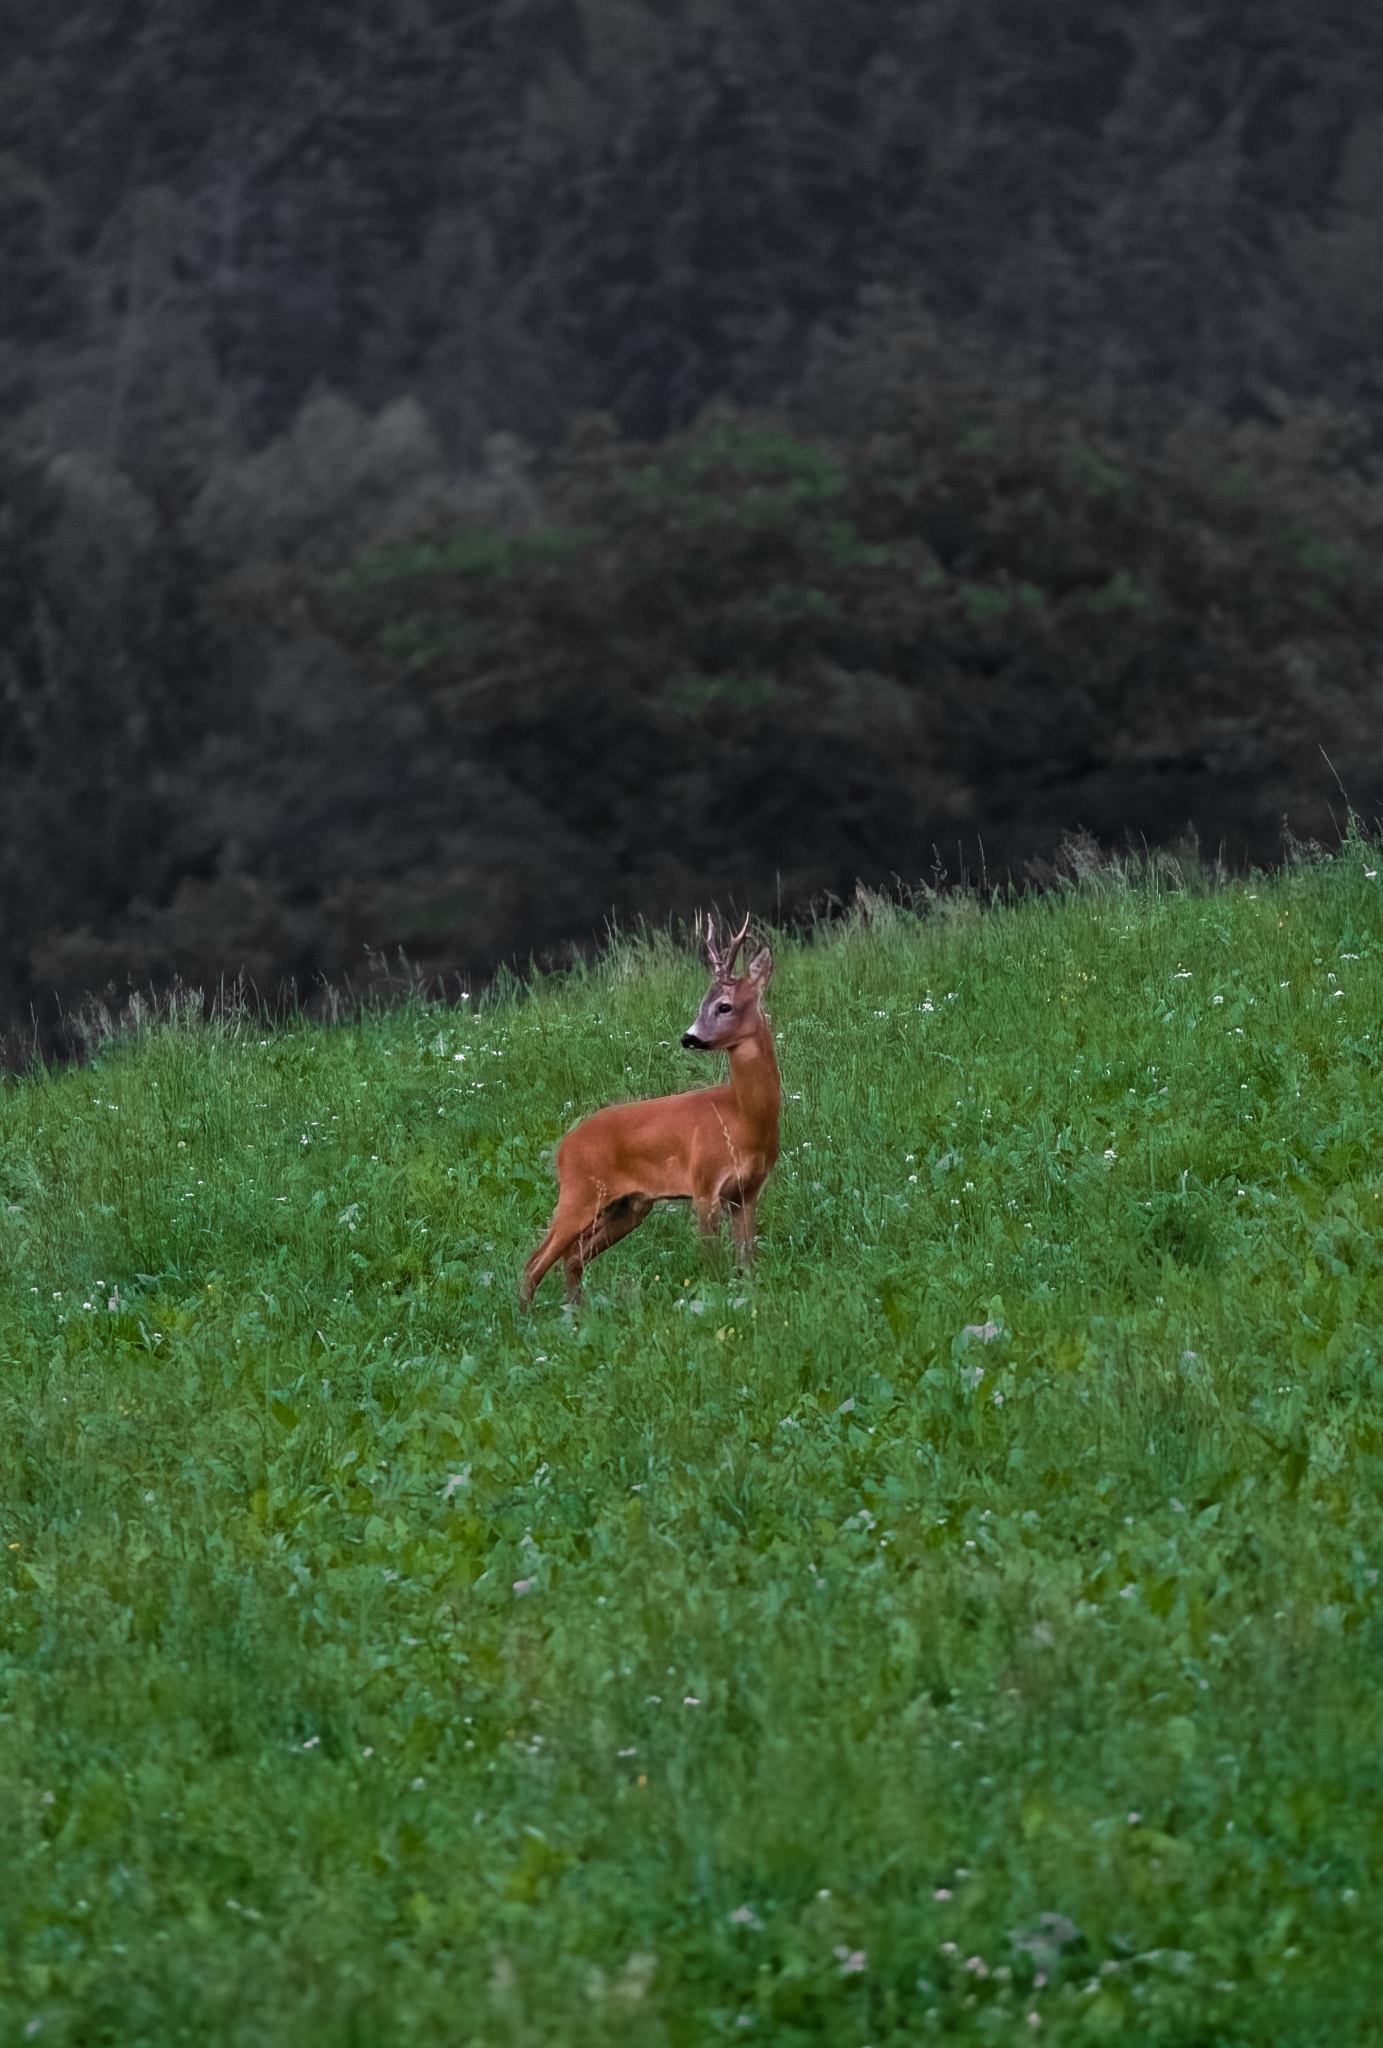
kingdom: Animalia
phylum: Chordata
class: Mammalia
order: Artiodactyla
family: Cervidae
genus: Capreolus
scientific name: Capreolus capreolus
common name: Western roe deer
